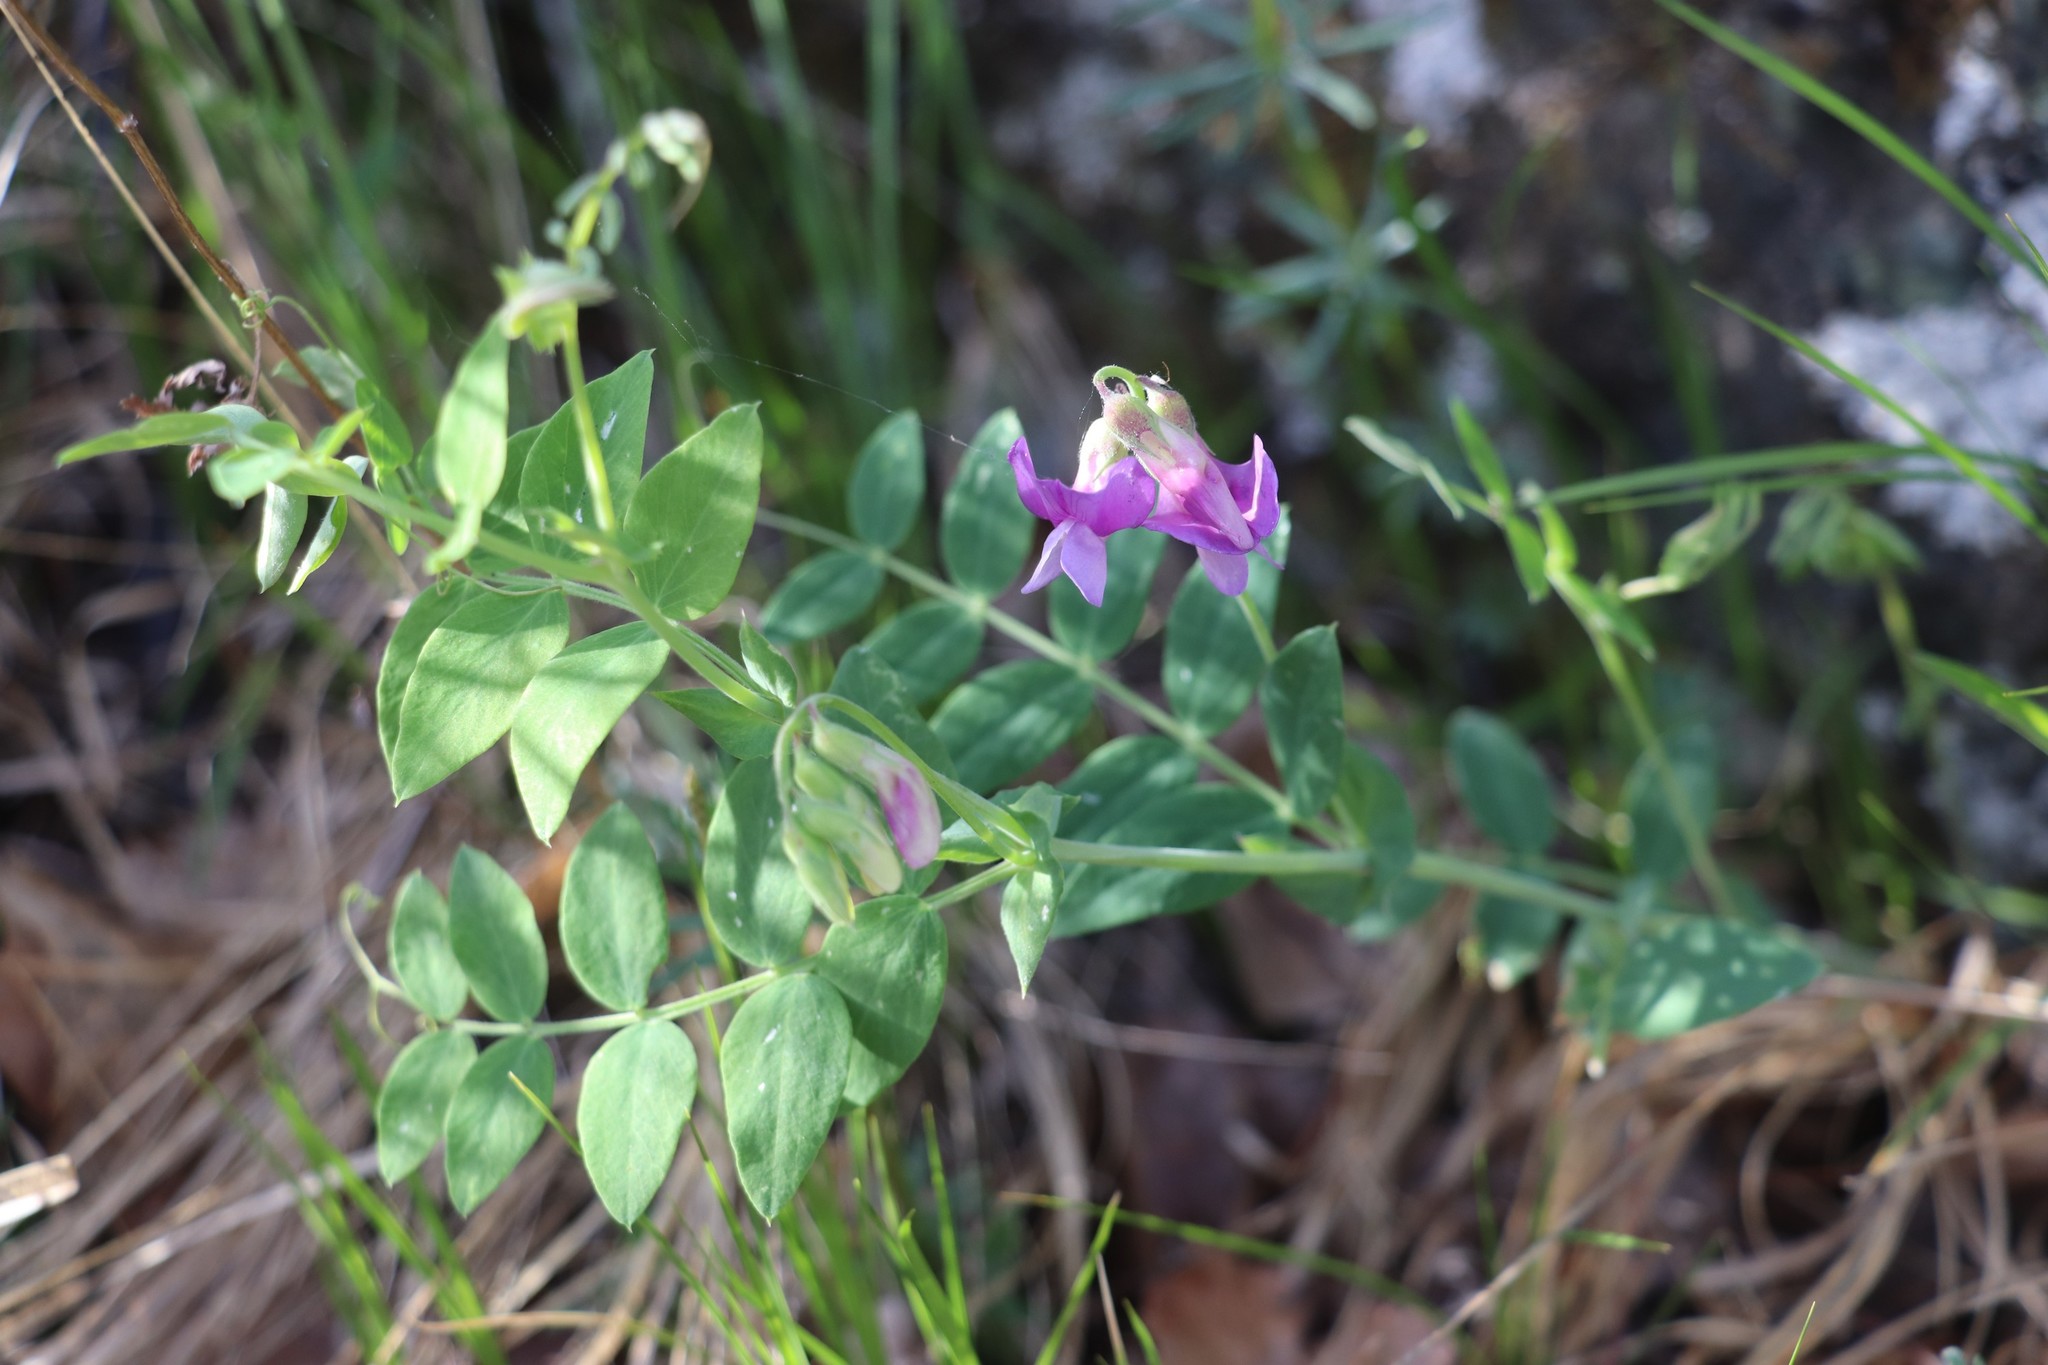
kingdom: Plantae
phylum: Tracheophyta
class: Magnoliopsida
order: Fabales
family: Fabaceae
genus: Lathyrus
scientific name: Lathyrus humilis
